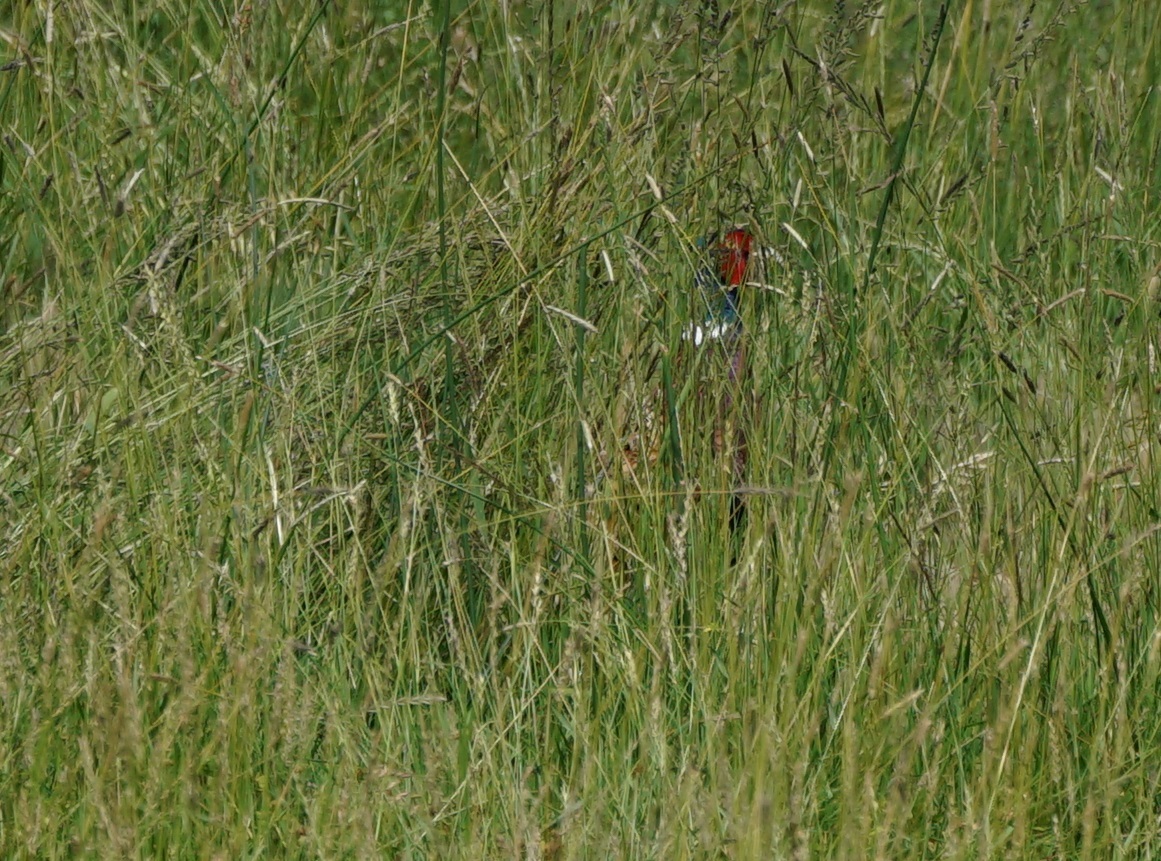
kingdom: Animalia
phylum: Chordata
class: Aves
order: Galliformes
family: Phasianidae
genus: Phasianus
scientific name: Phasianus colchicus
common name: Common pheasant
